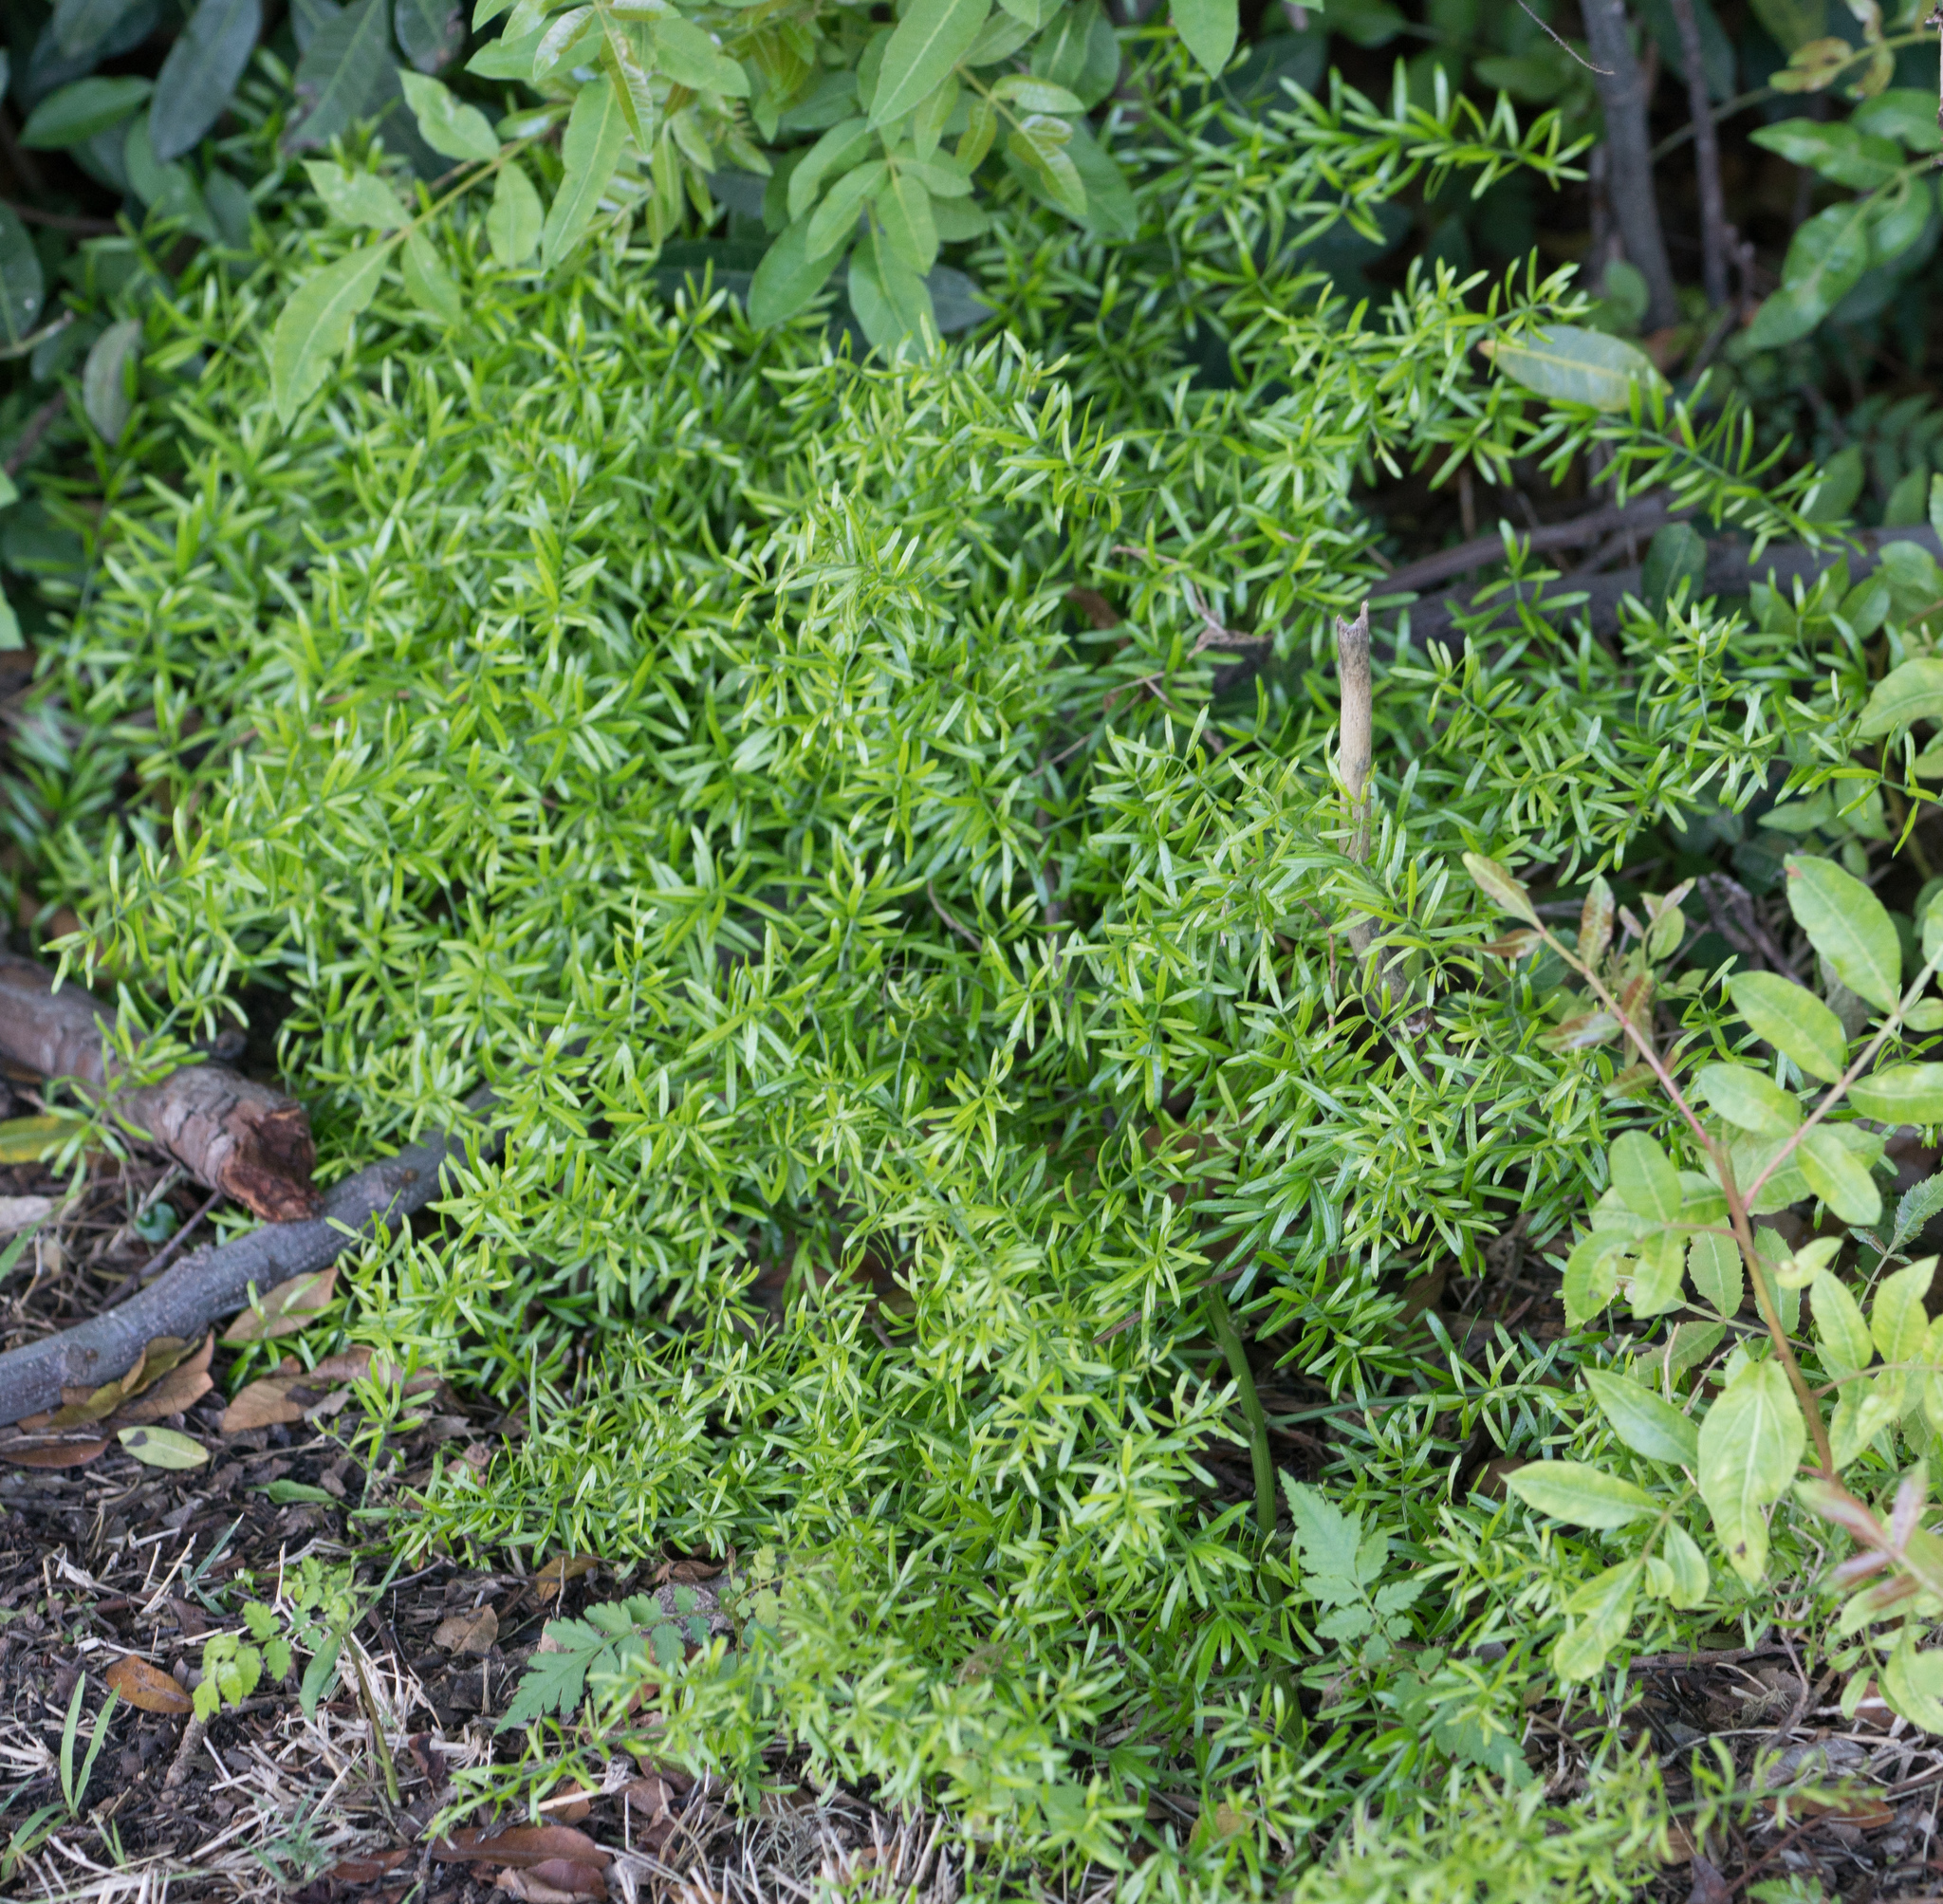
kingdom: Plantae
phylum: Tracheophyta
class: Liliopsida
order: Asparagales
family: Asparagaceae
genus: Asparagus
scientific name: Asparagus aethiopicus
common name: Sprenger's asparagus fern
